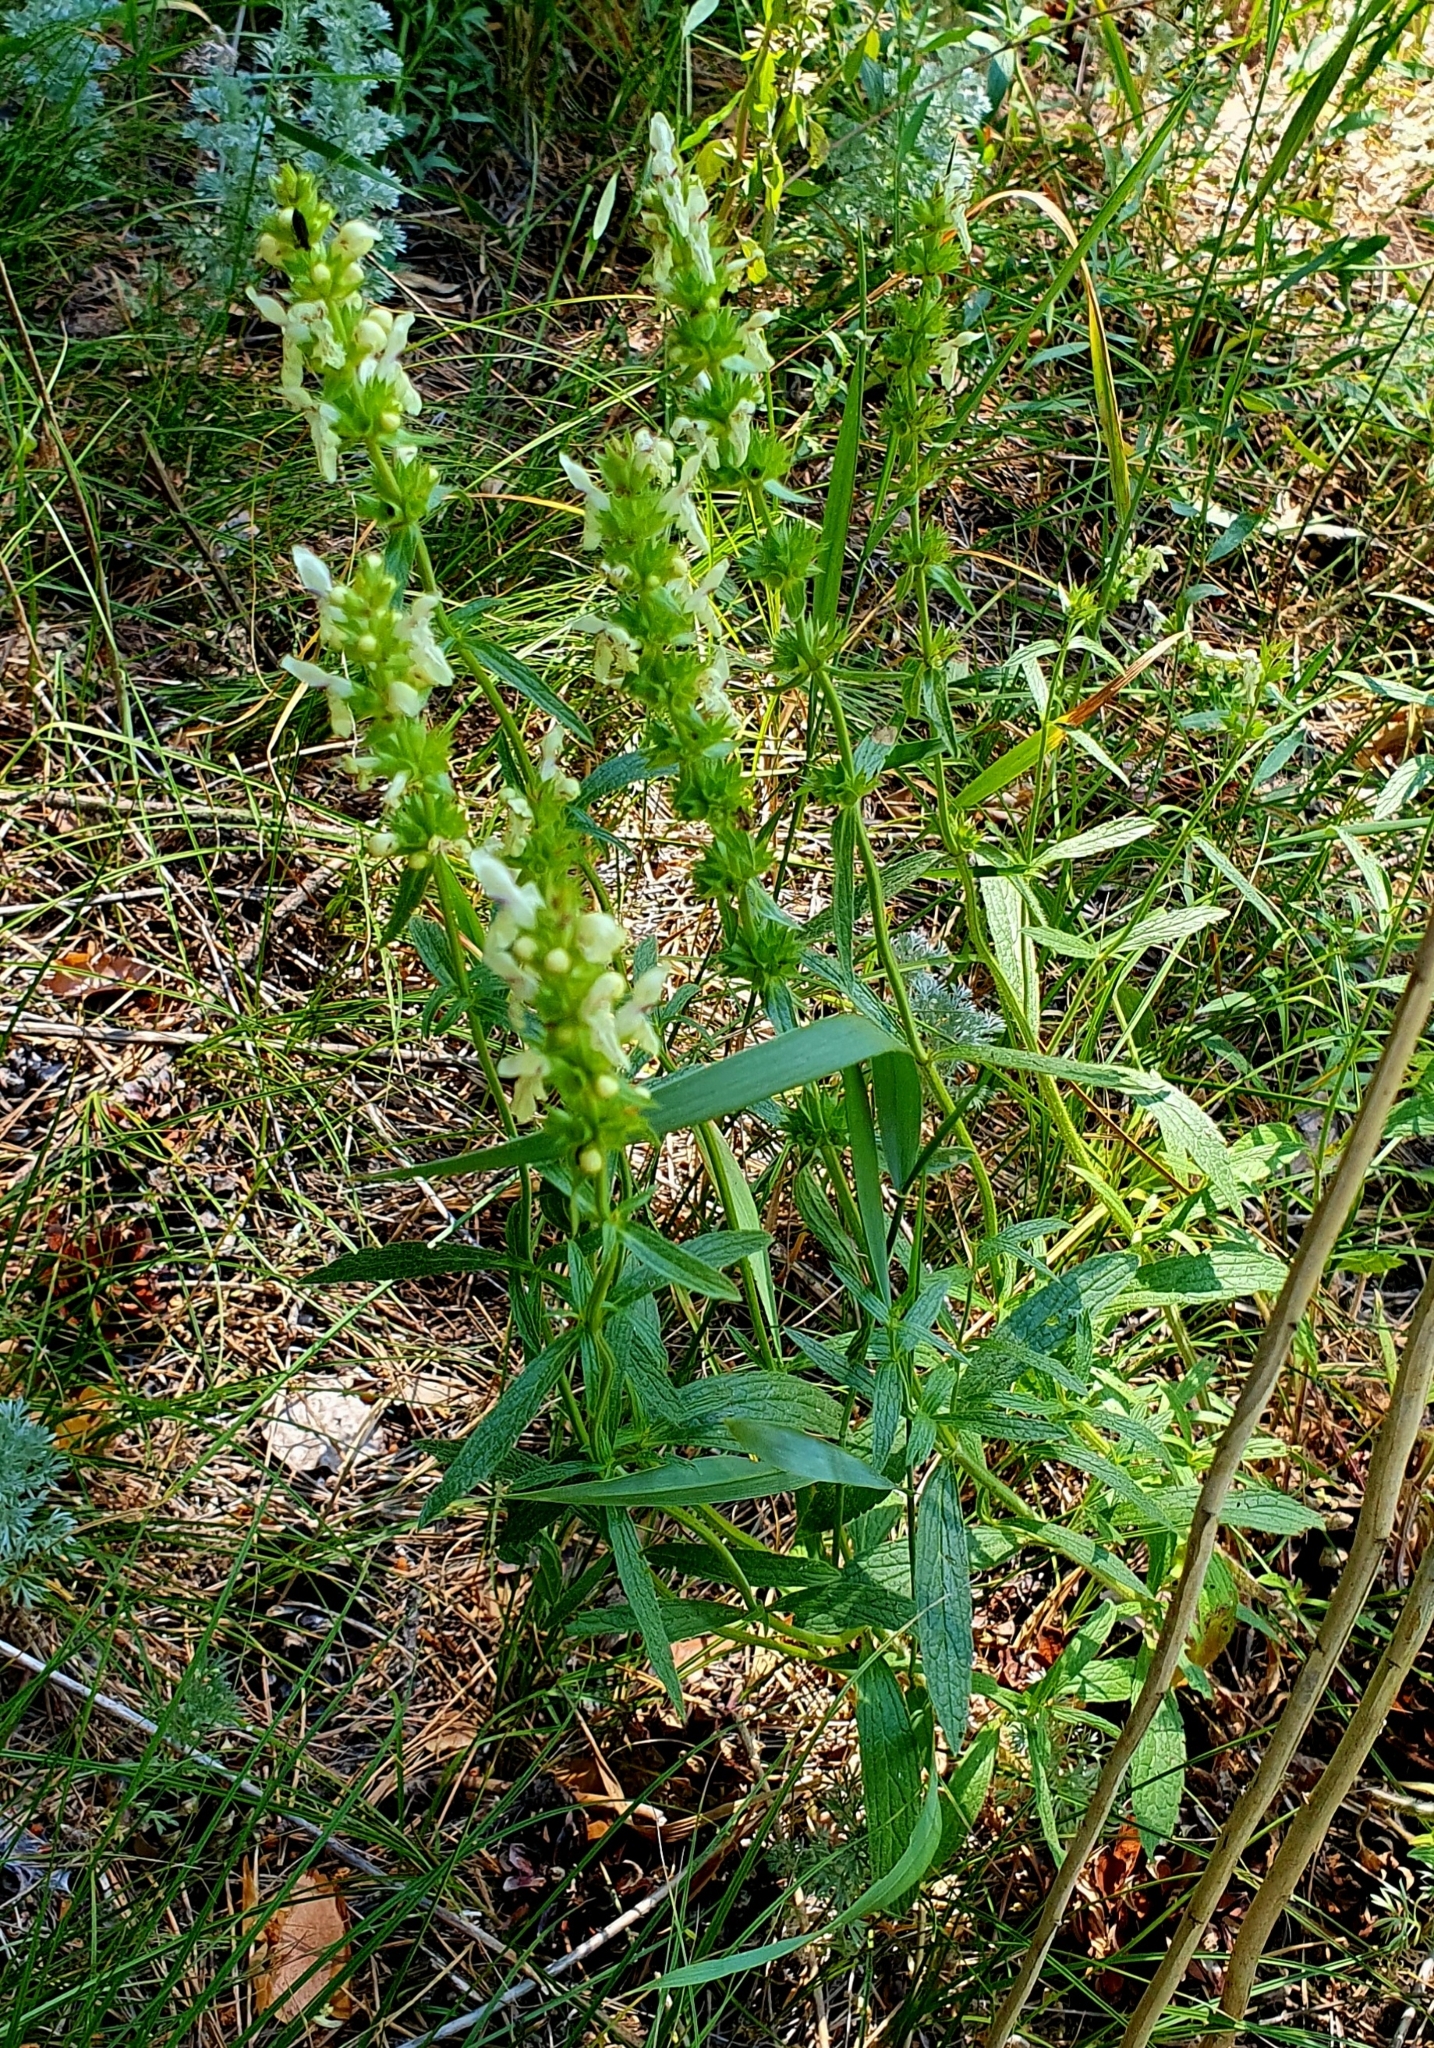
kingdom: Plantae
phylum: Tracheophyta
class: Magnoliopsida
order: Lamiales
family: Lamiaceae
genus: Stachys
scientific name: Stachys recta
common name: Perennial yellow-woundwort
